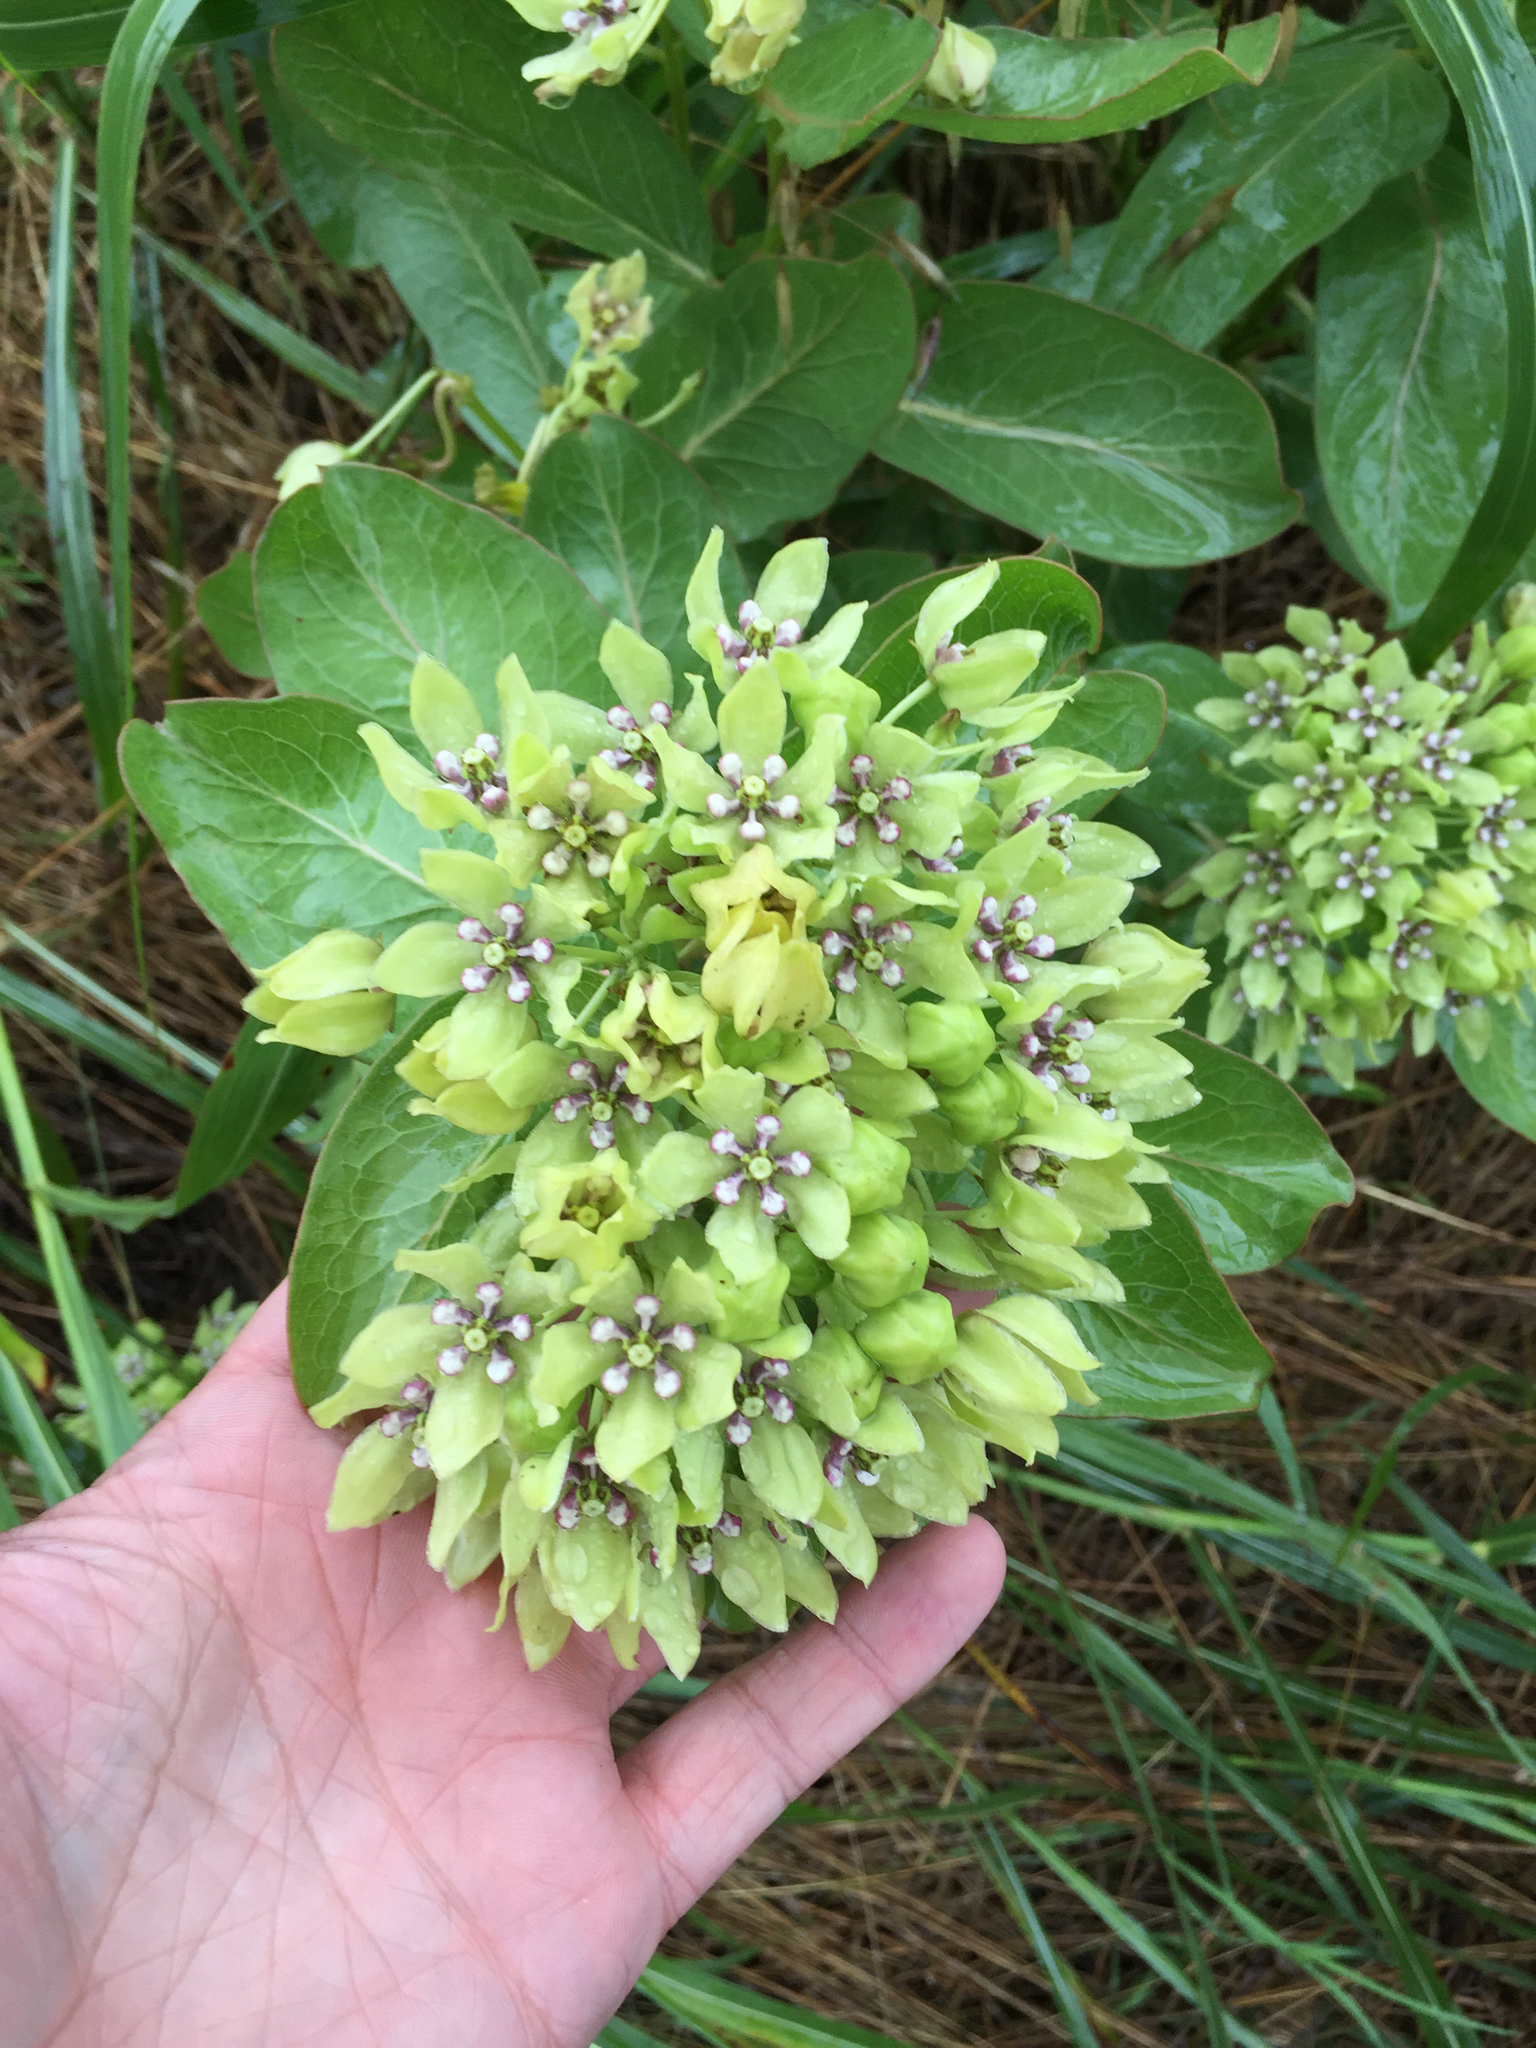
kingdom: Plantae
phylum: Tracheophyta
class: Magnoliopsida
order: Gentianales
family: Apocynaceae
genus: Asclepias
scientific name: Asclepias viridis
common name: Antelope-horns
